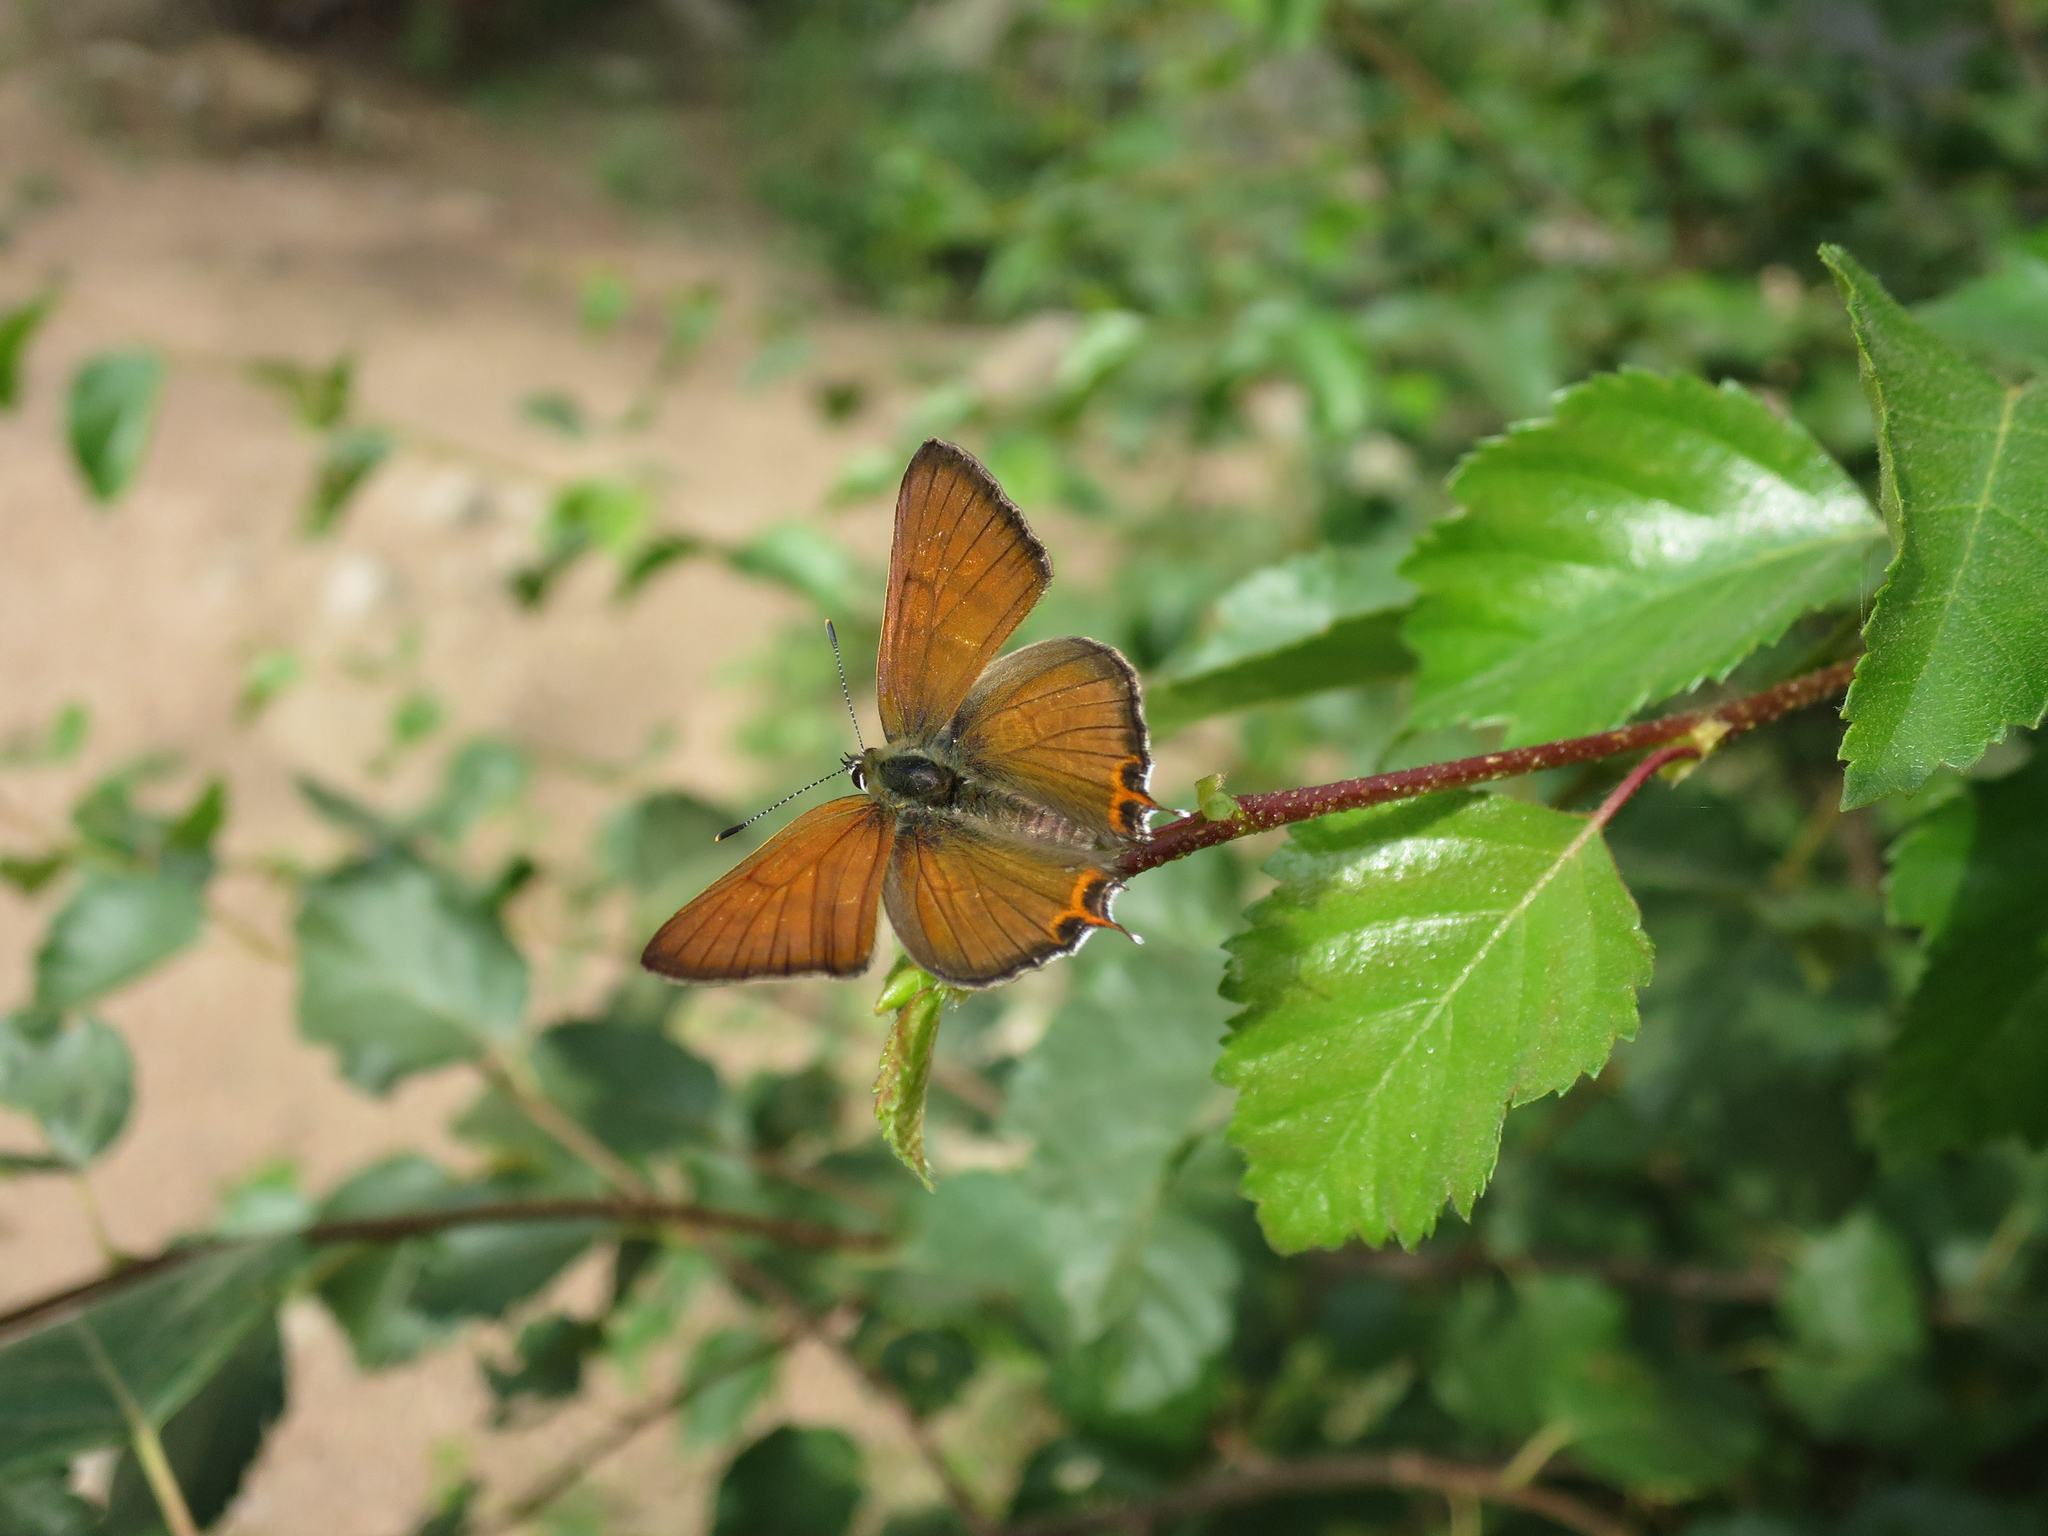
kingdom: Animalia
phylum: Arthropoda
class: Insecta
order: Lepidoptera
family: Lycaenidae
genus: Tharsalea
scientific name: Tharsalea arota
